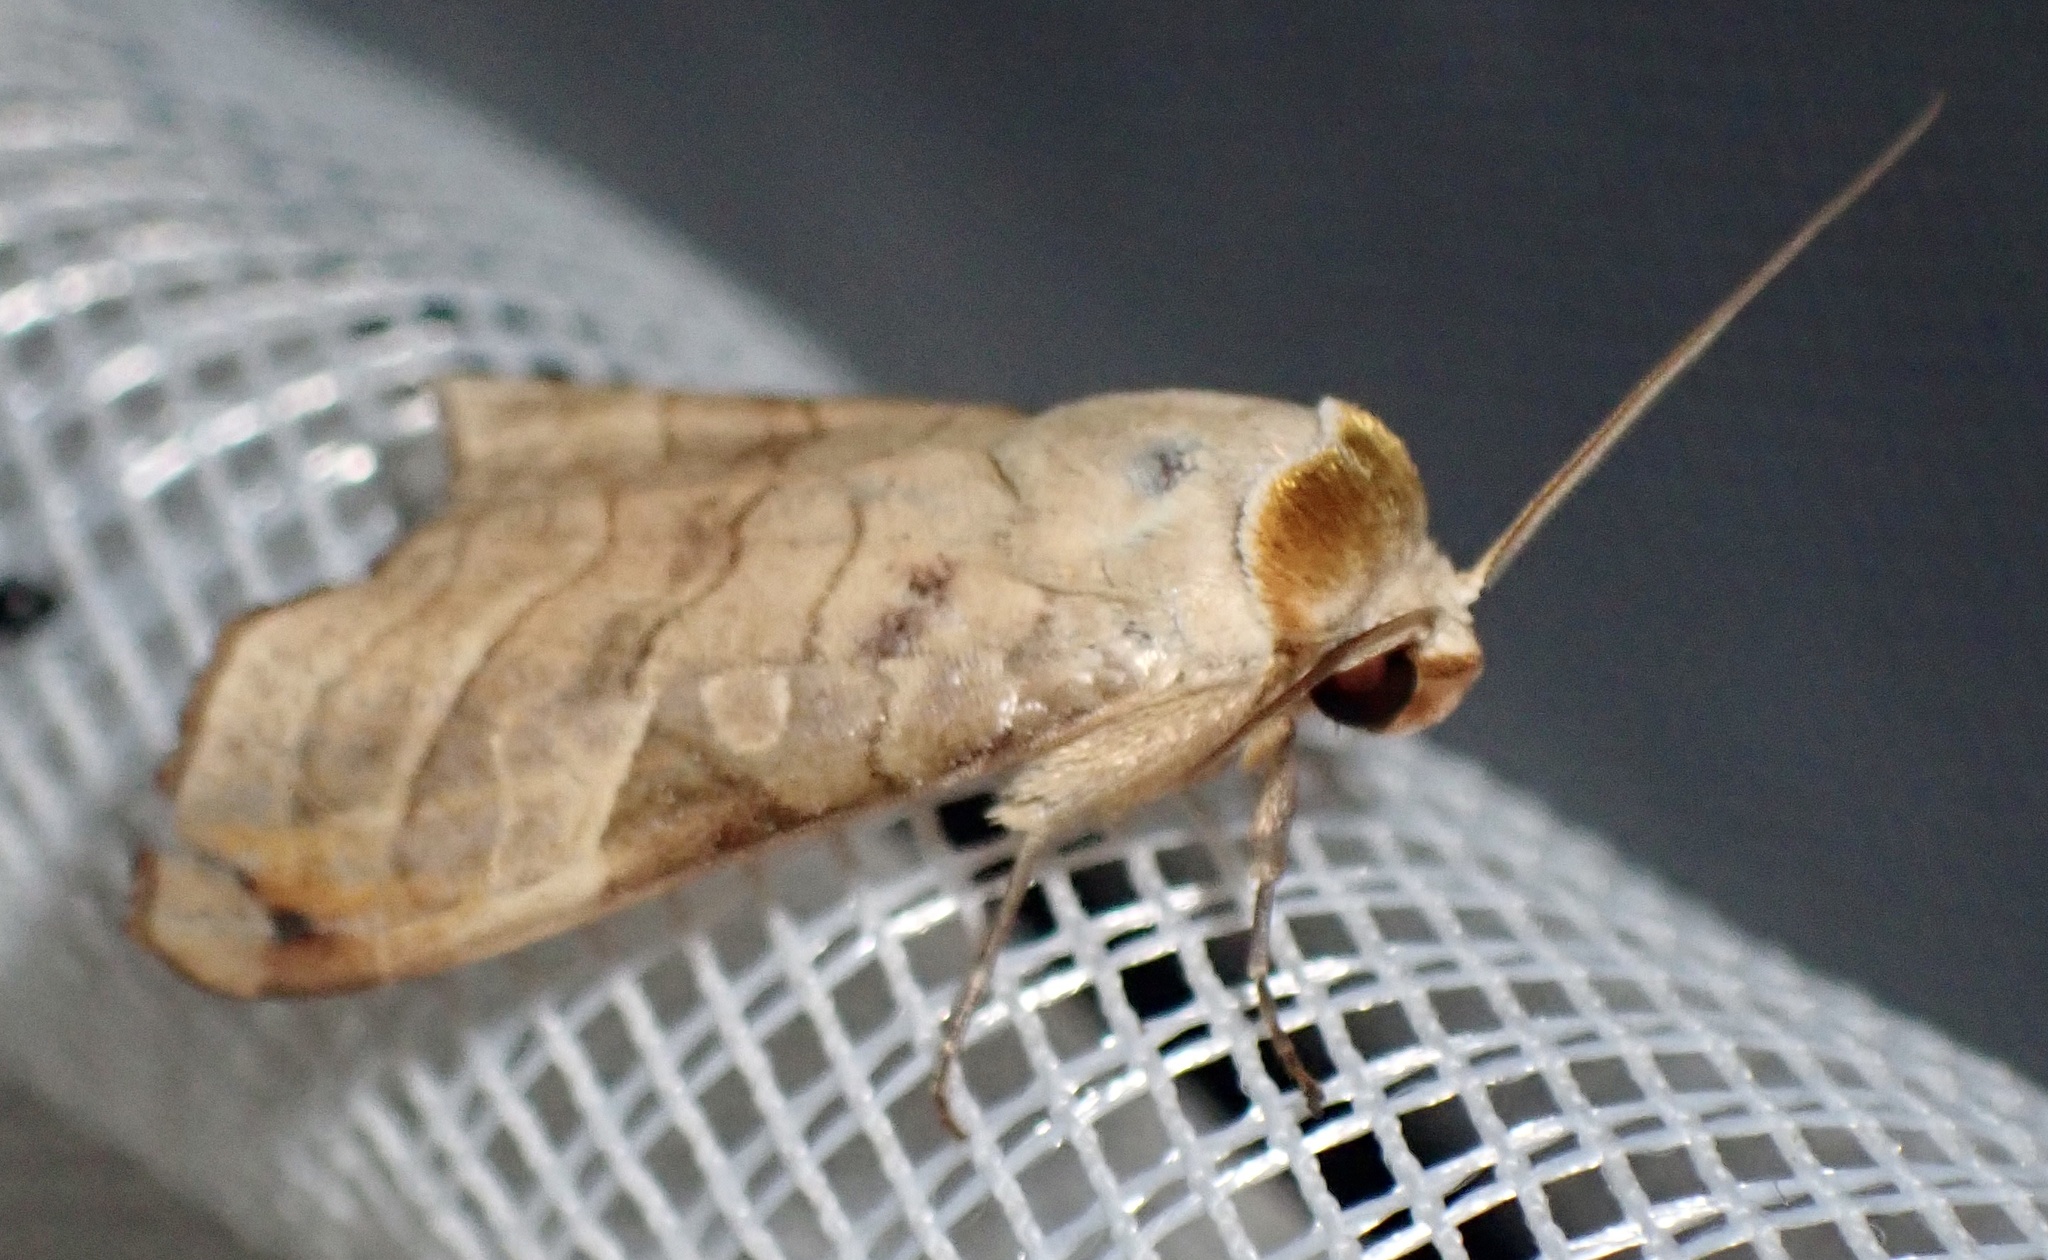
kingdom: Animalia
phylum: Arthropoda
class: Insecta
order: Lepidoptera
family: Noctuidae
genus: Phlogophora
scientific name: Phlogophora tristictica
